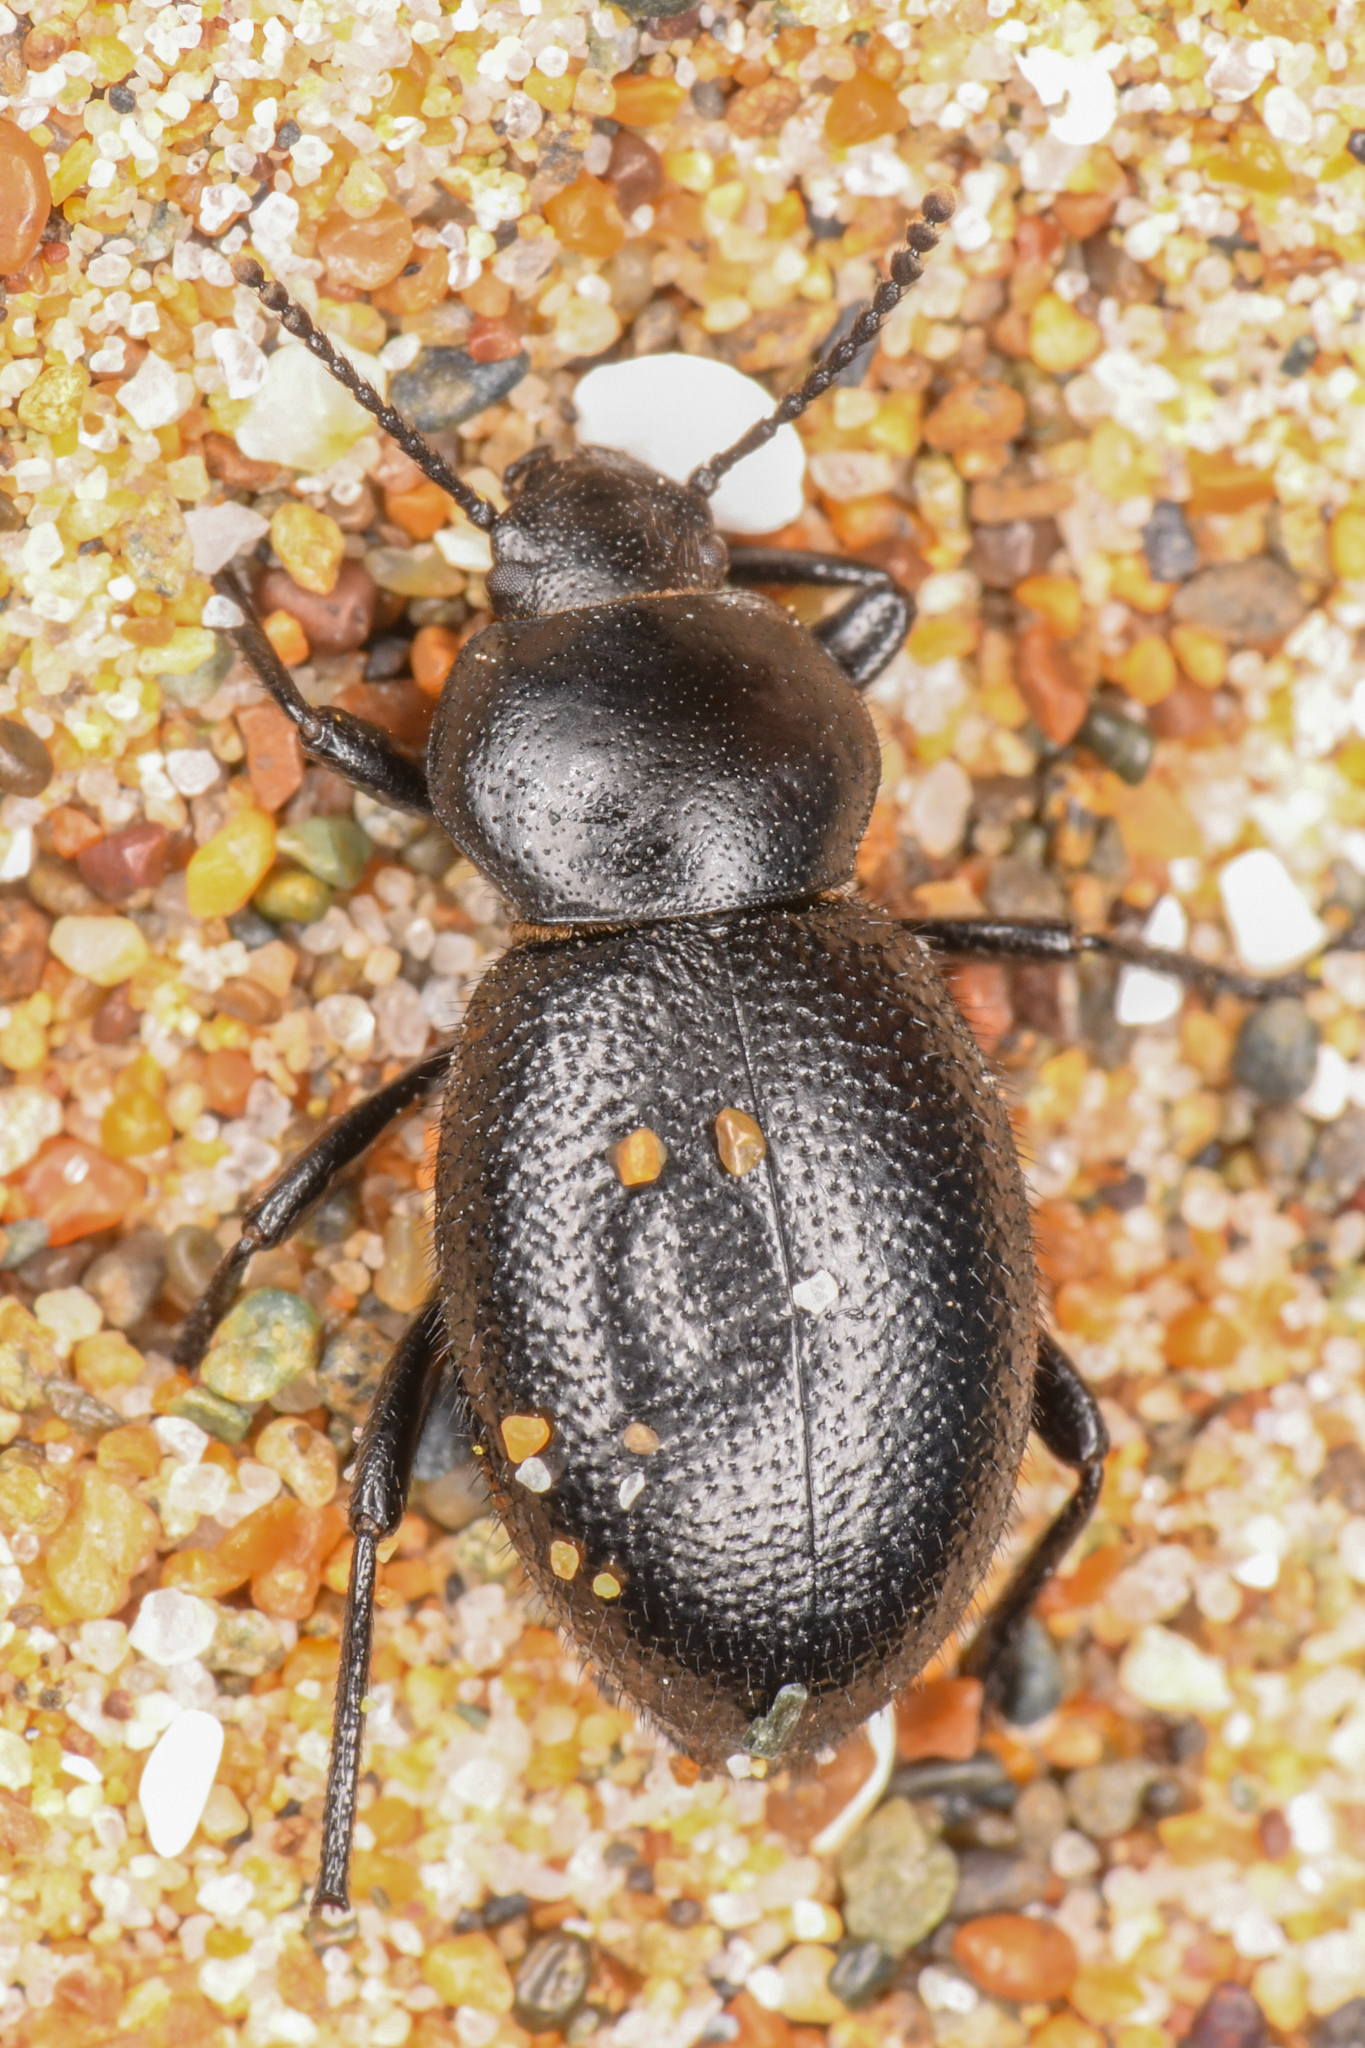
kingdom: Animalia
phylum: Arthropoda
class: Insecta
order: Coleoptera
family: Tenebrionidae
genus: Eleodes
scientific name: Eleodes clavicornis
